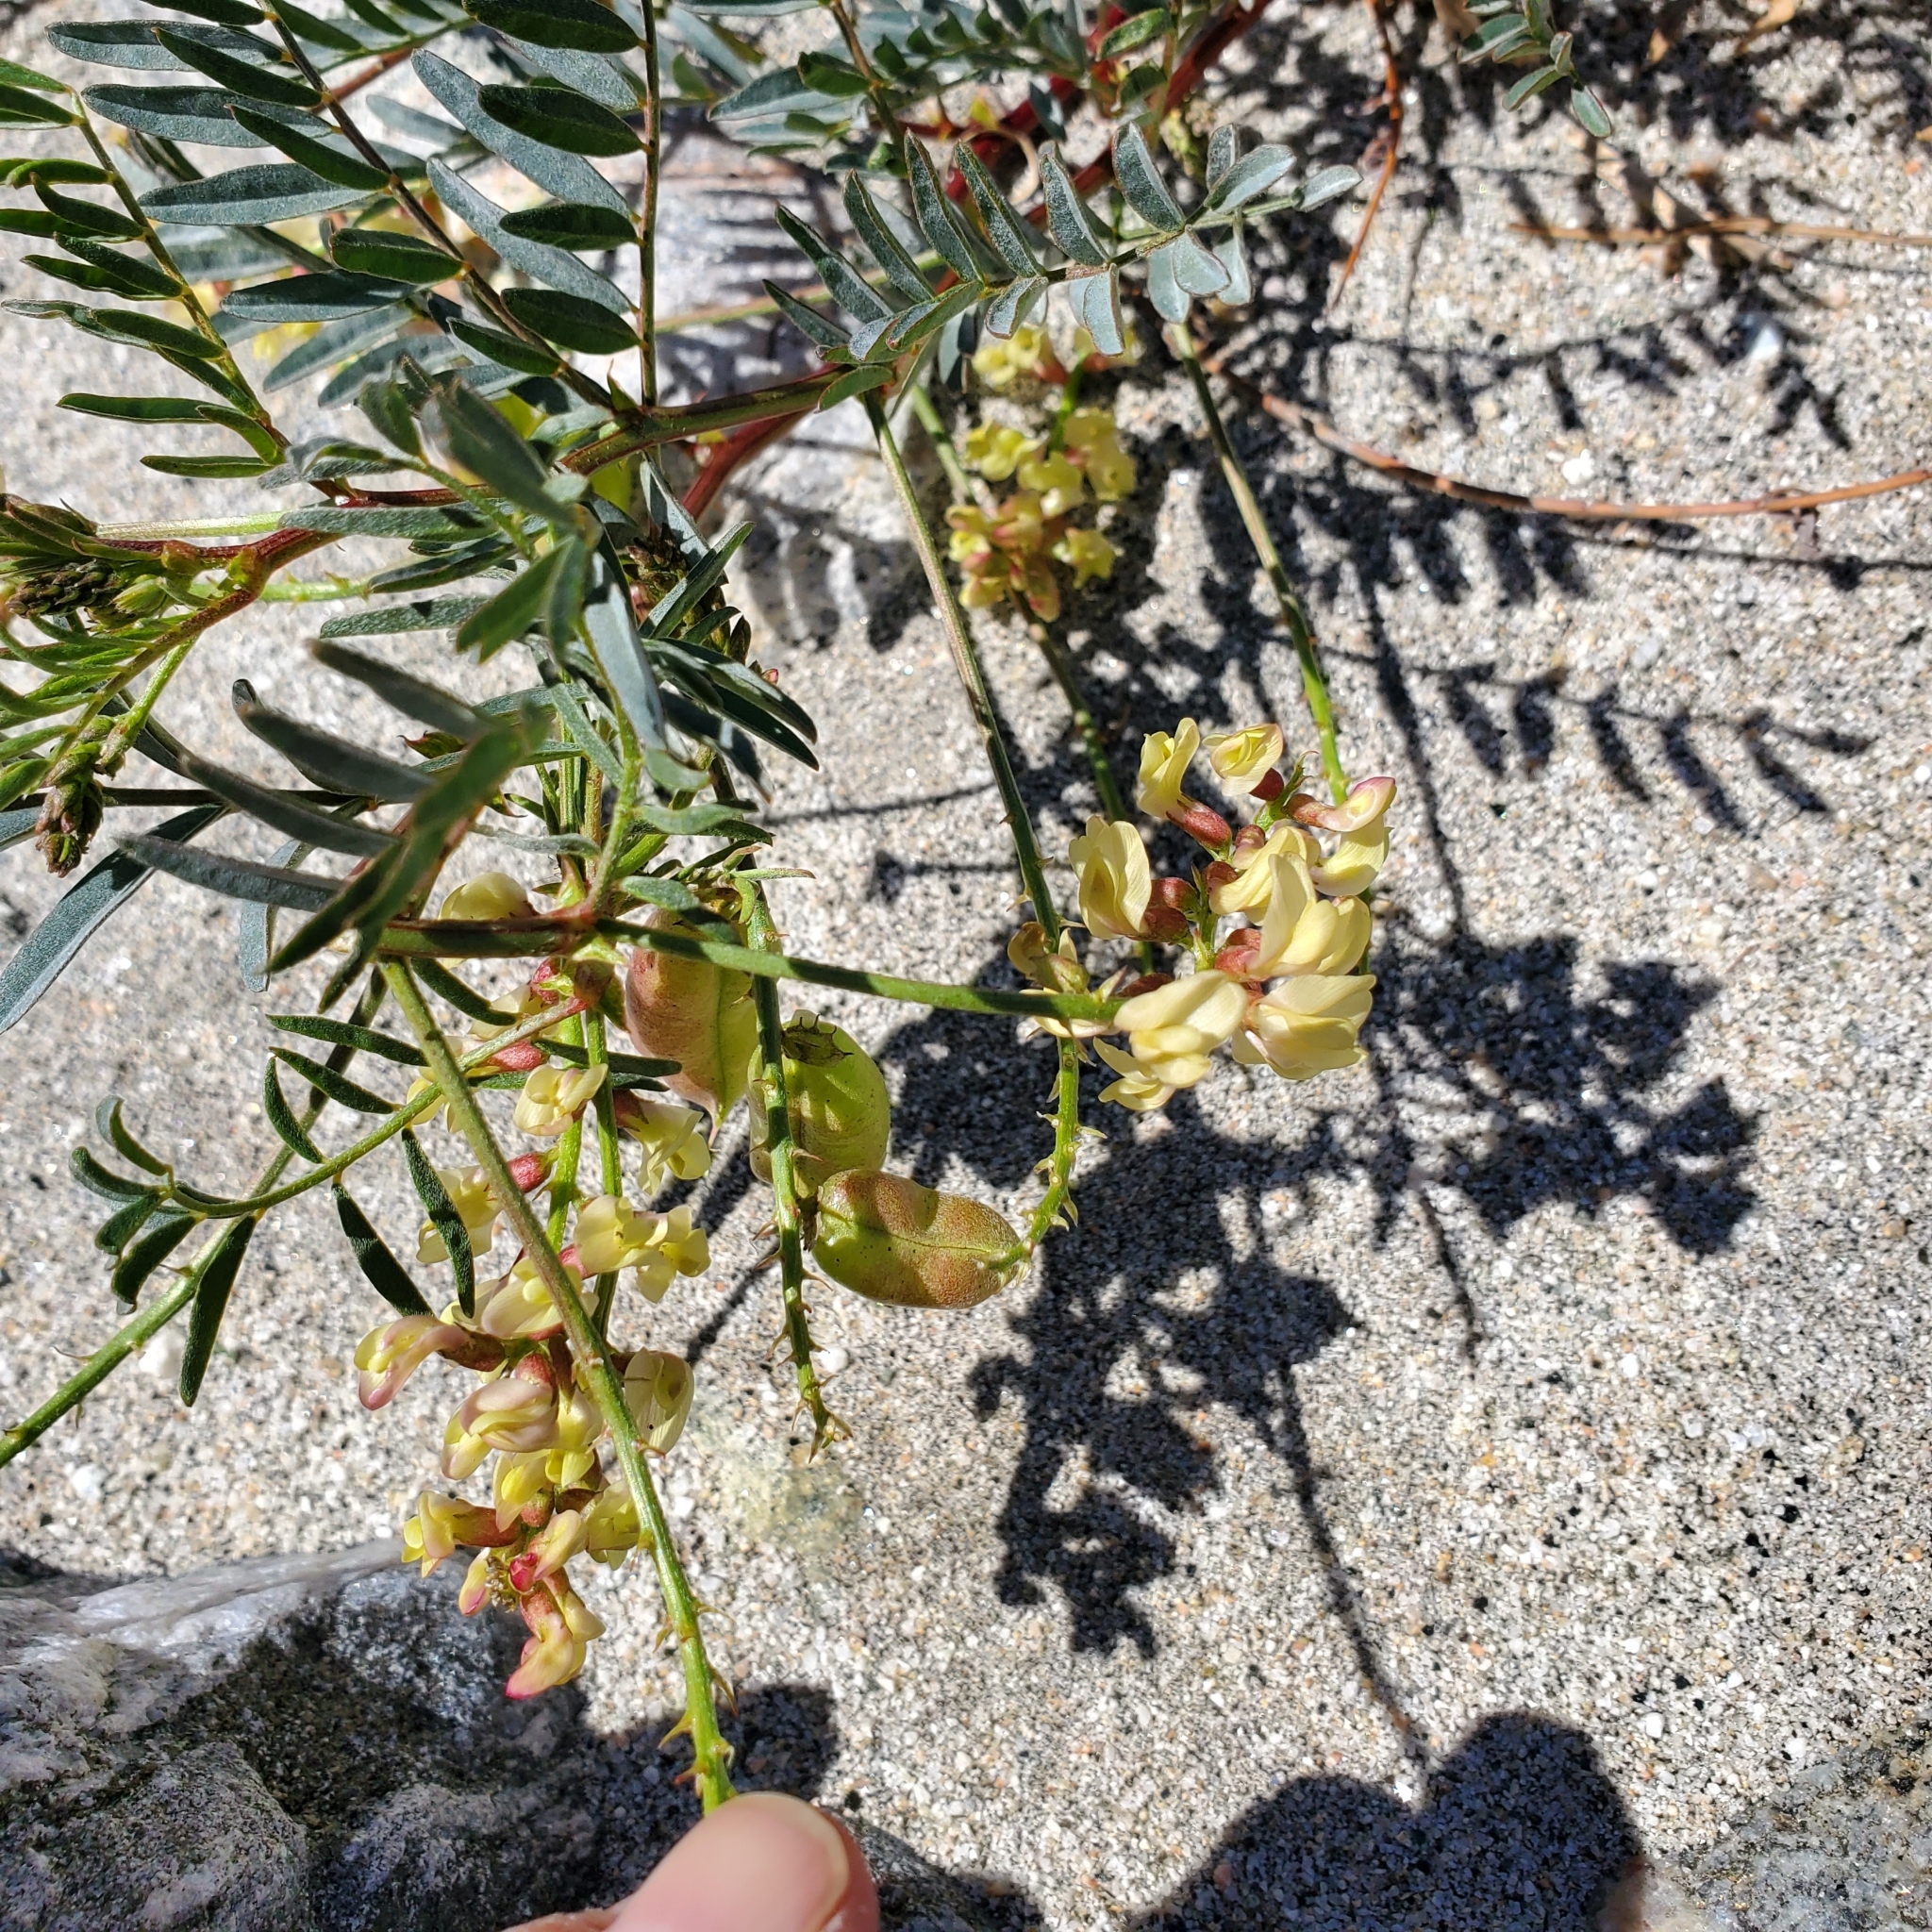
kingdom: Plantae
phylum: Tracheophyta
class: Magnoliopsida
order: Fabales
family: Fabaceae
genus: Astragalus
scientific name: Astragalus douglasii
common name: Jacumba milkvetch
